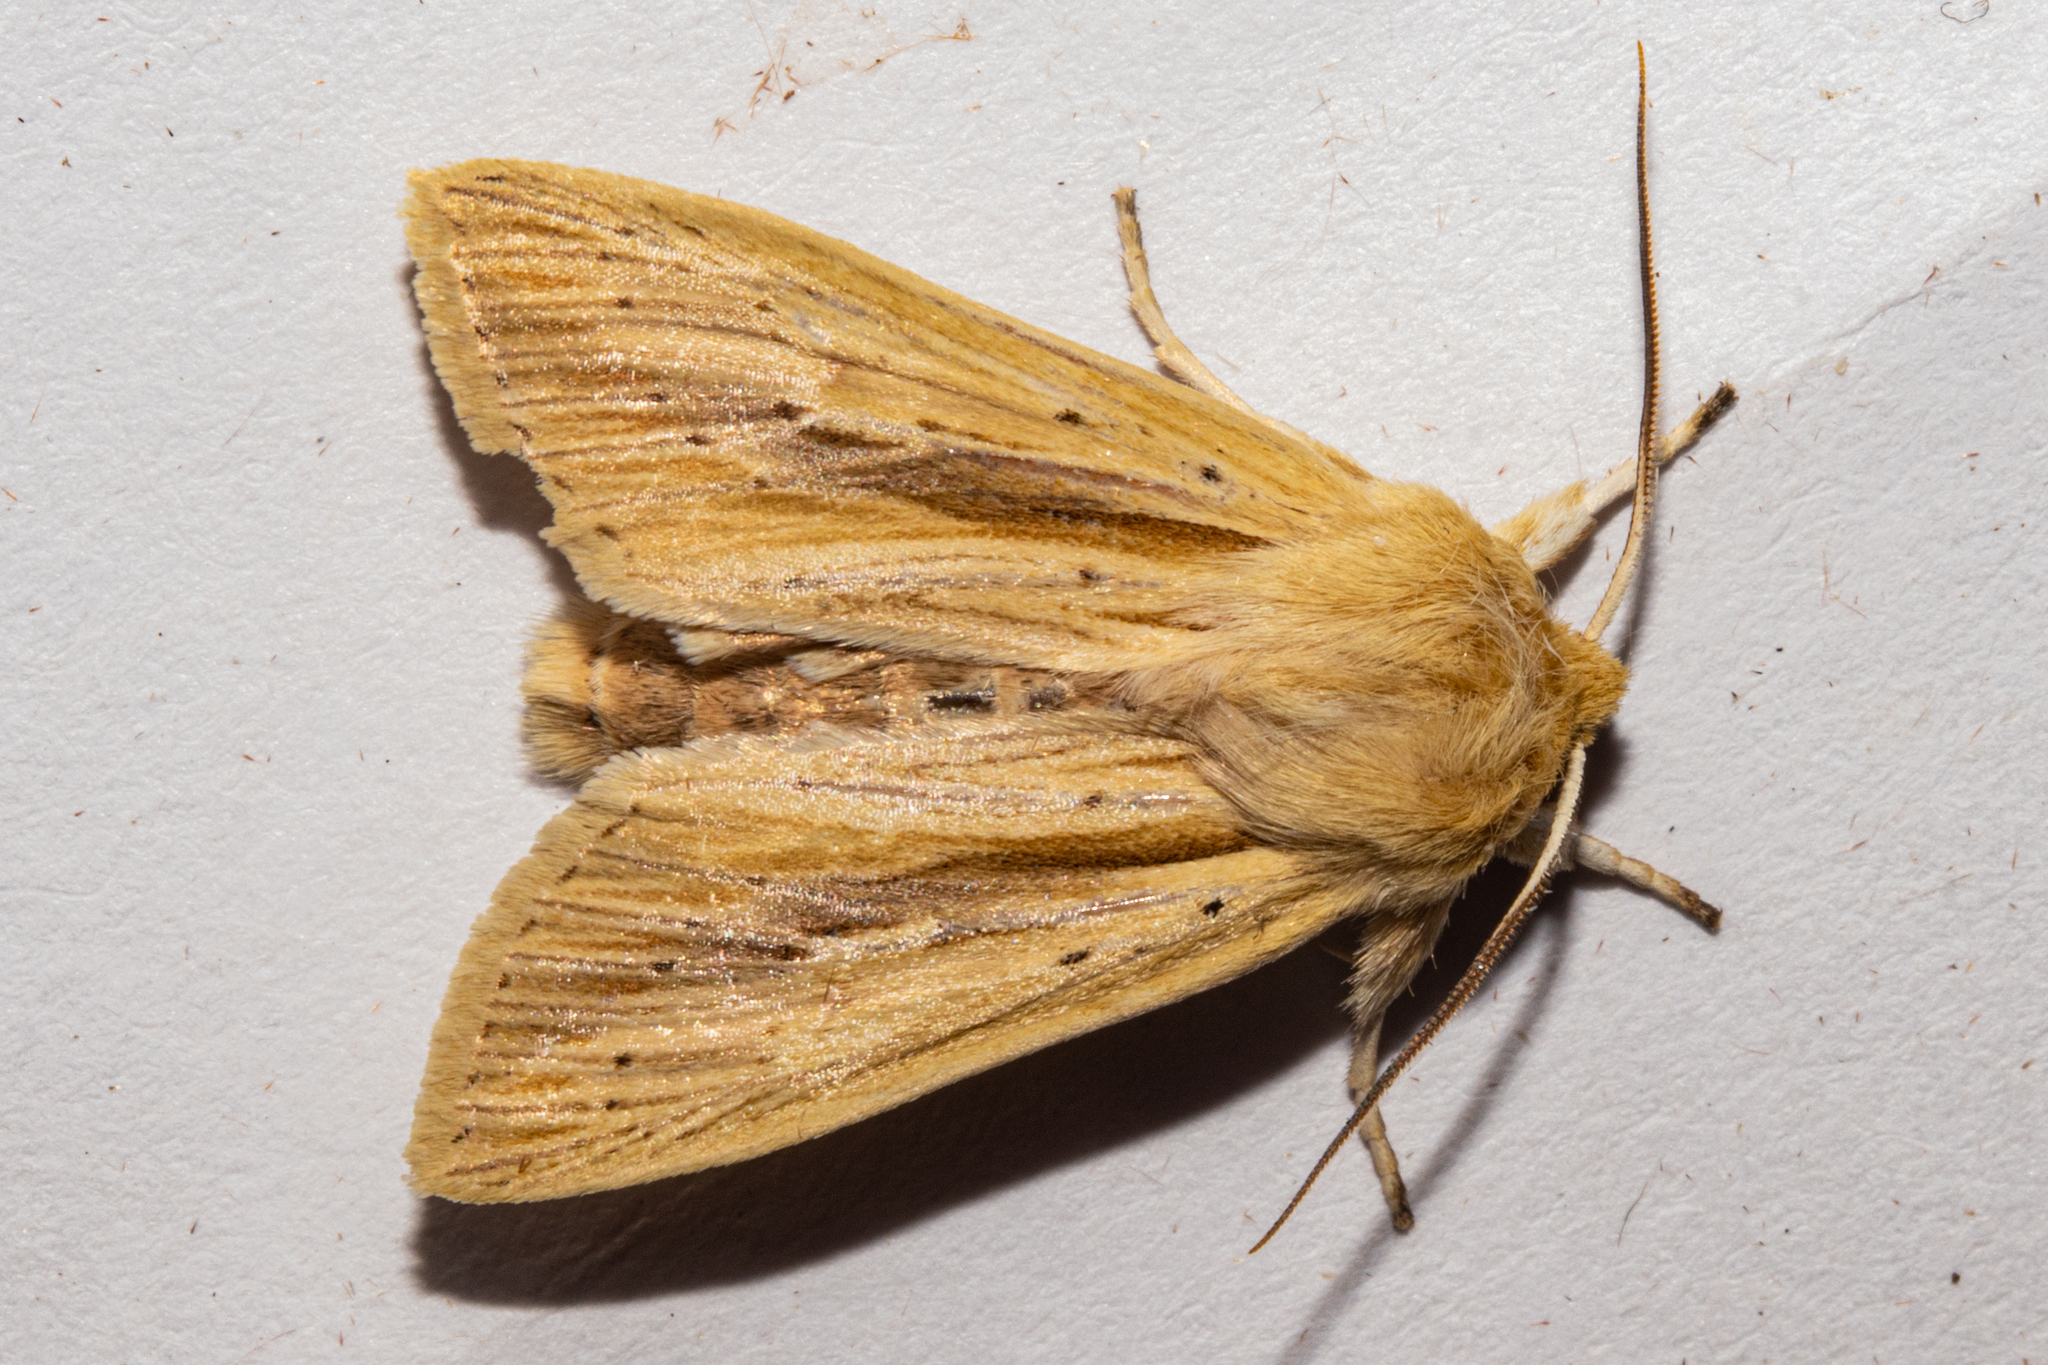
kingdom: Animalia
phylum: Arthropoda
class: Insecta
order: Lepidoptera
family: Noctuidae
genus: Ichneutica
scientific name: Ichneutica semivittata
